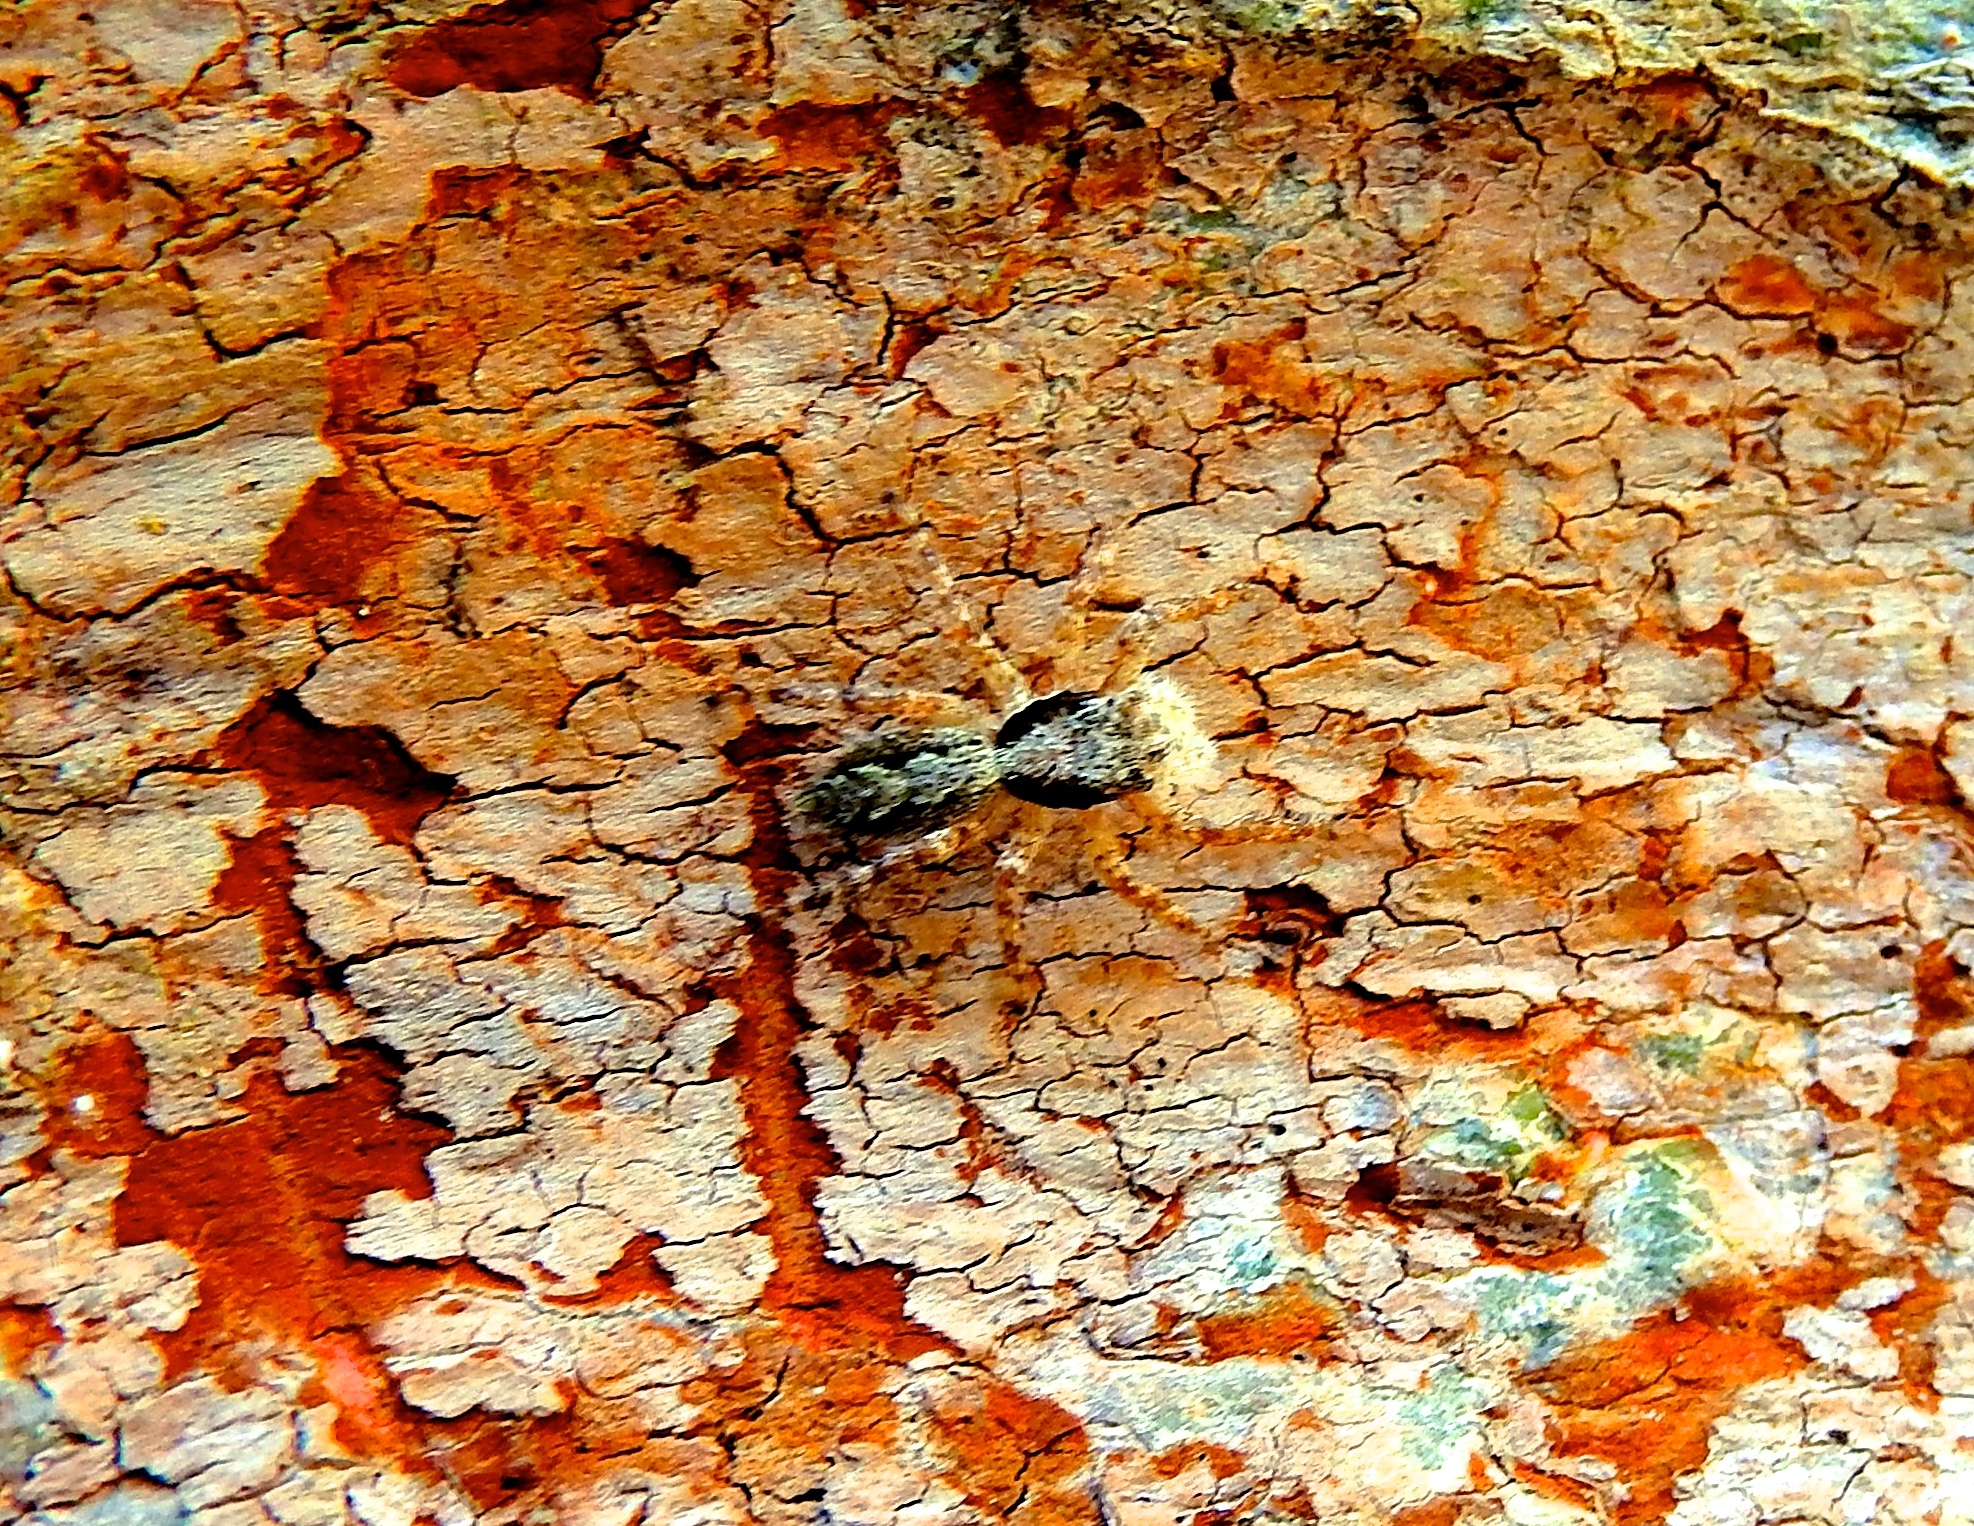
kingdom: Animalia
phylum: Arthropoda
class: Arachnida
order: Araneae
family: Salticidae
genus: Balmaceda
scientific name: Balmaceda
